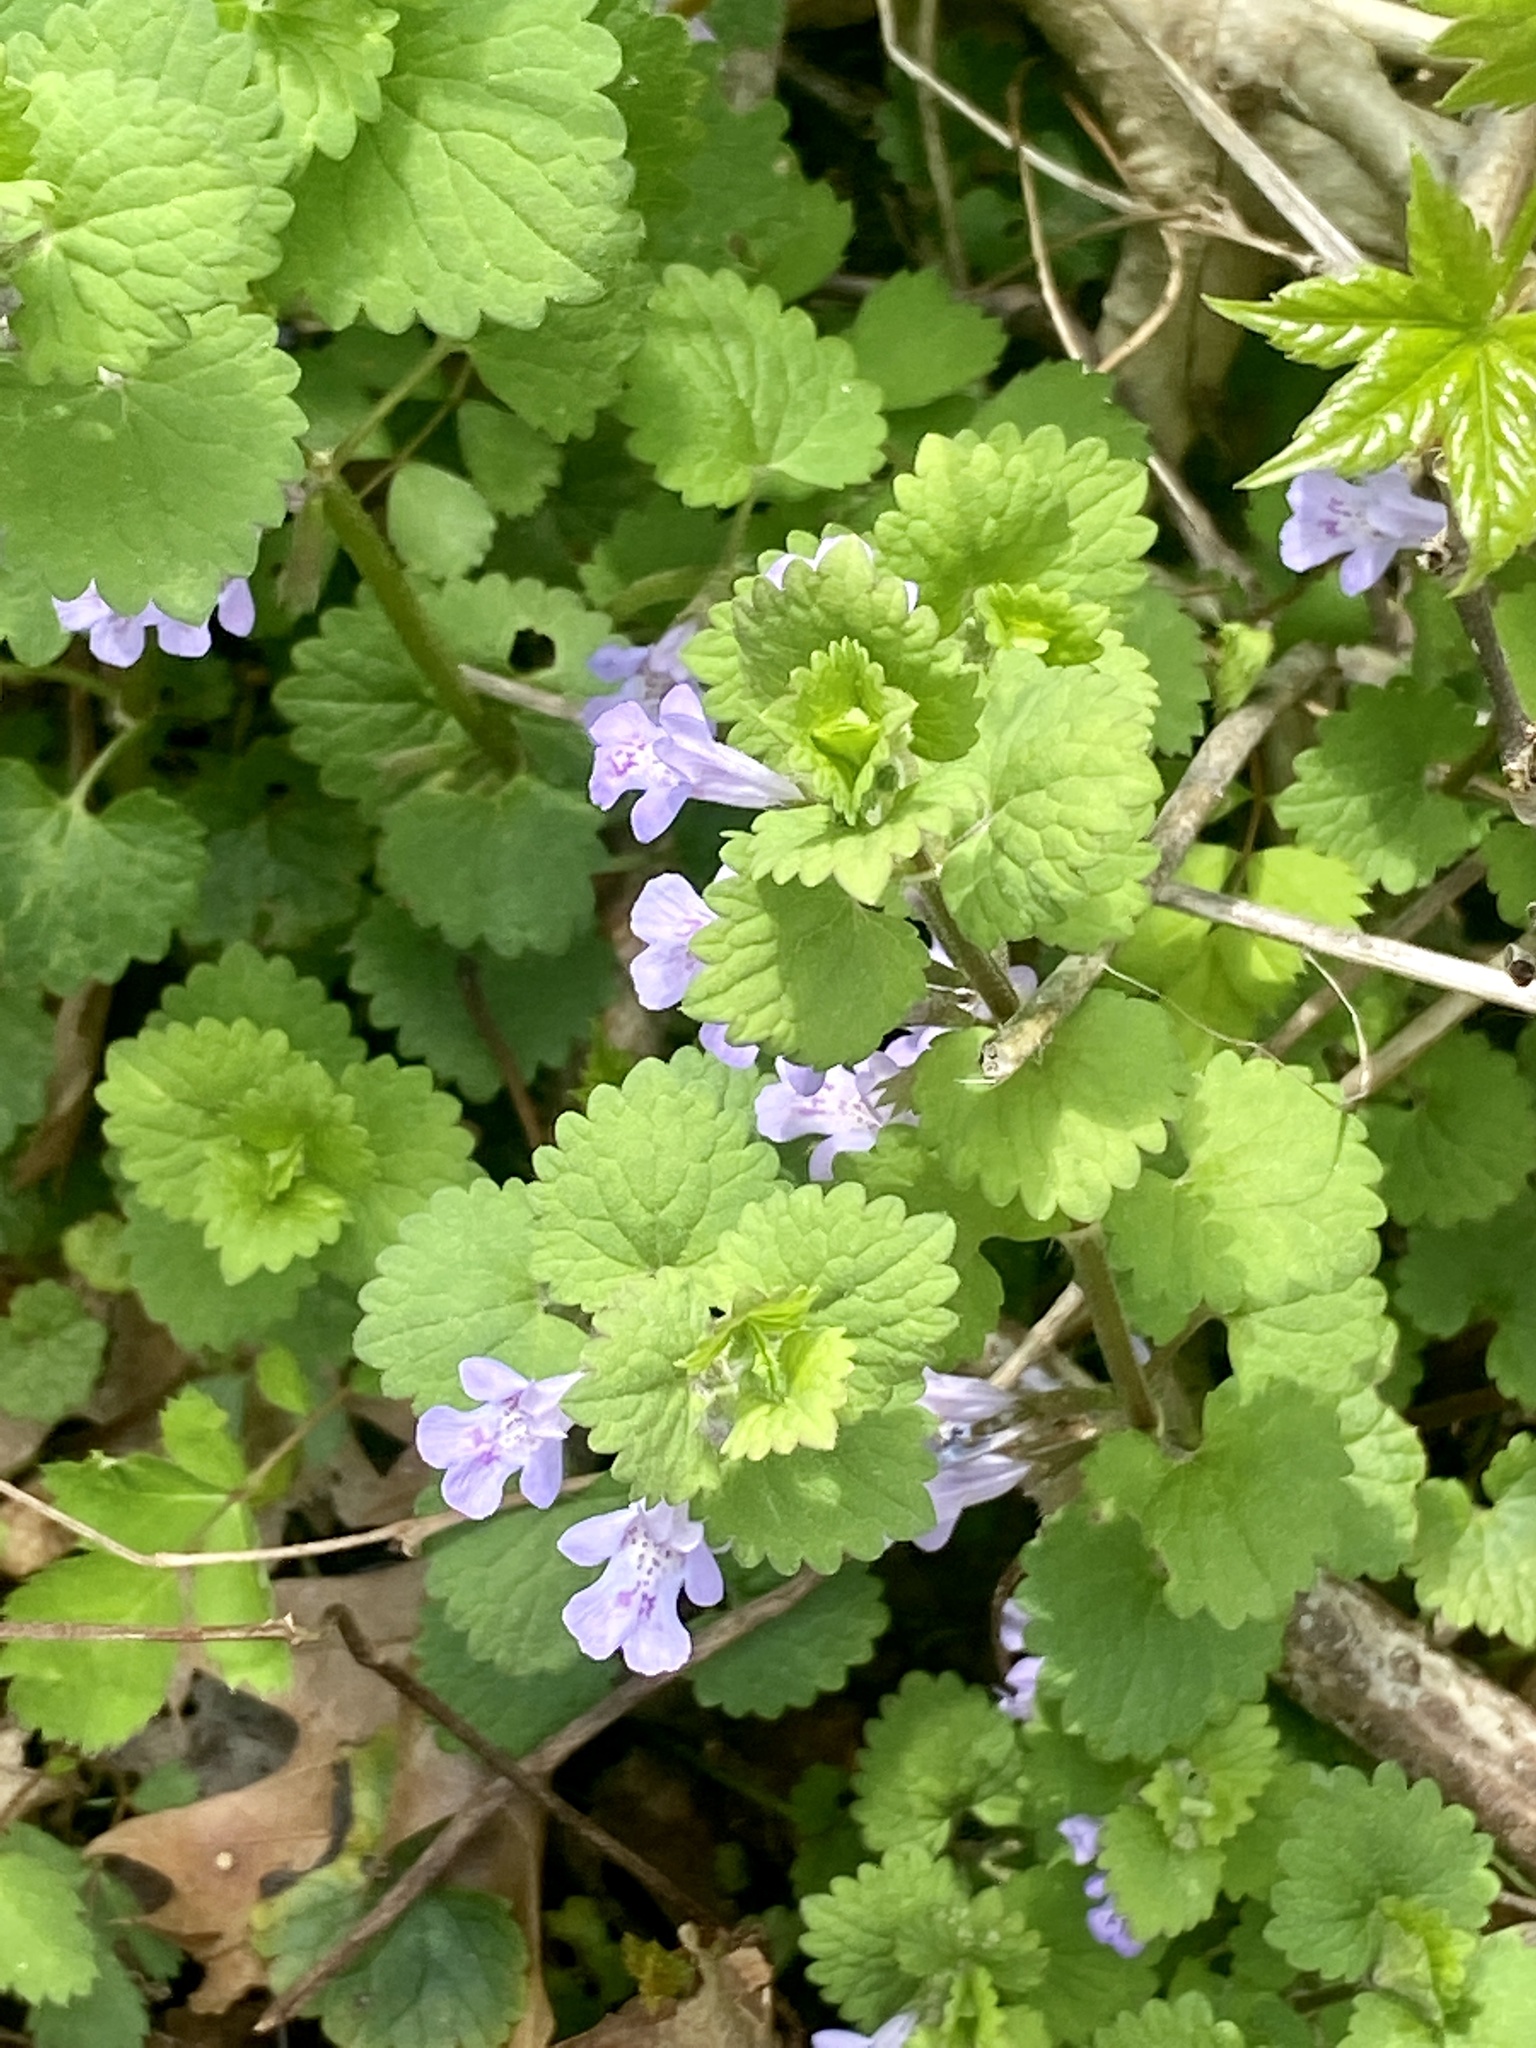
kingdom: Plantae
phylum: Tracheophyta
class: Magnoliopsida
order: Lamiales
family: Lamiaceae
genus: Glechoma
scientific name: Glechoma hederacea
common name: Ground ivy
